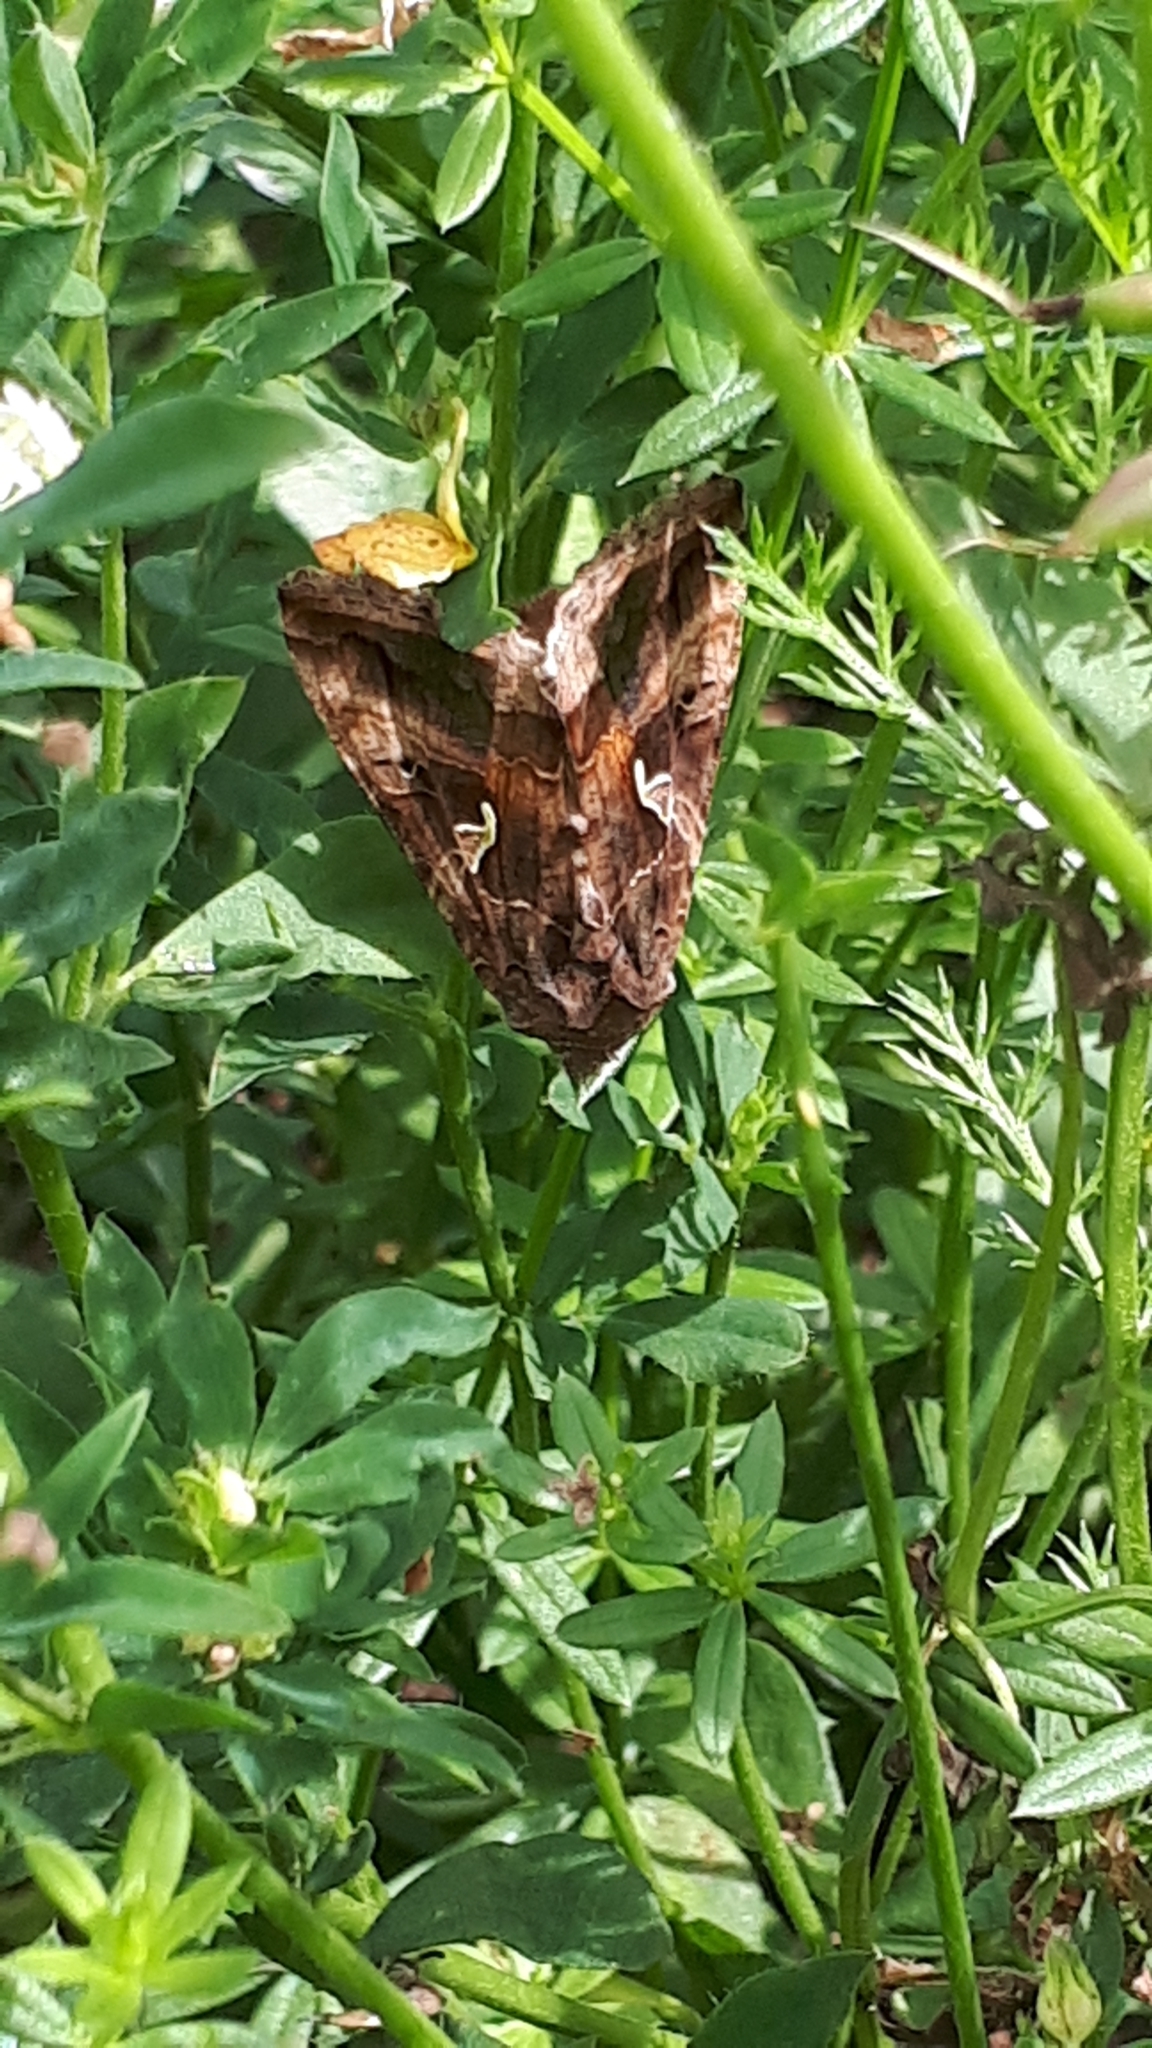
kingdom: Animalia
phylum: Arthropoda
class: Insecta
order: Lepidoptera
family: Noctuidae
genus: Autographa
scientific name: Autographa gamma
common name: Silver y
